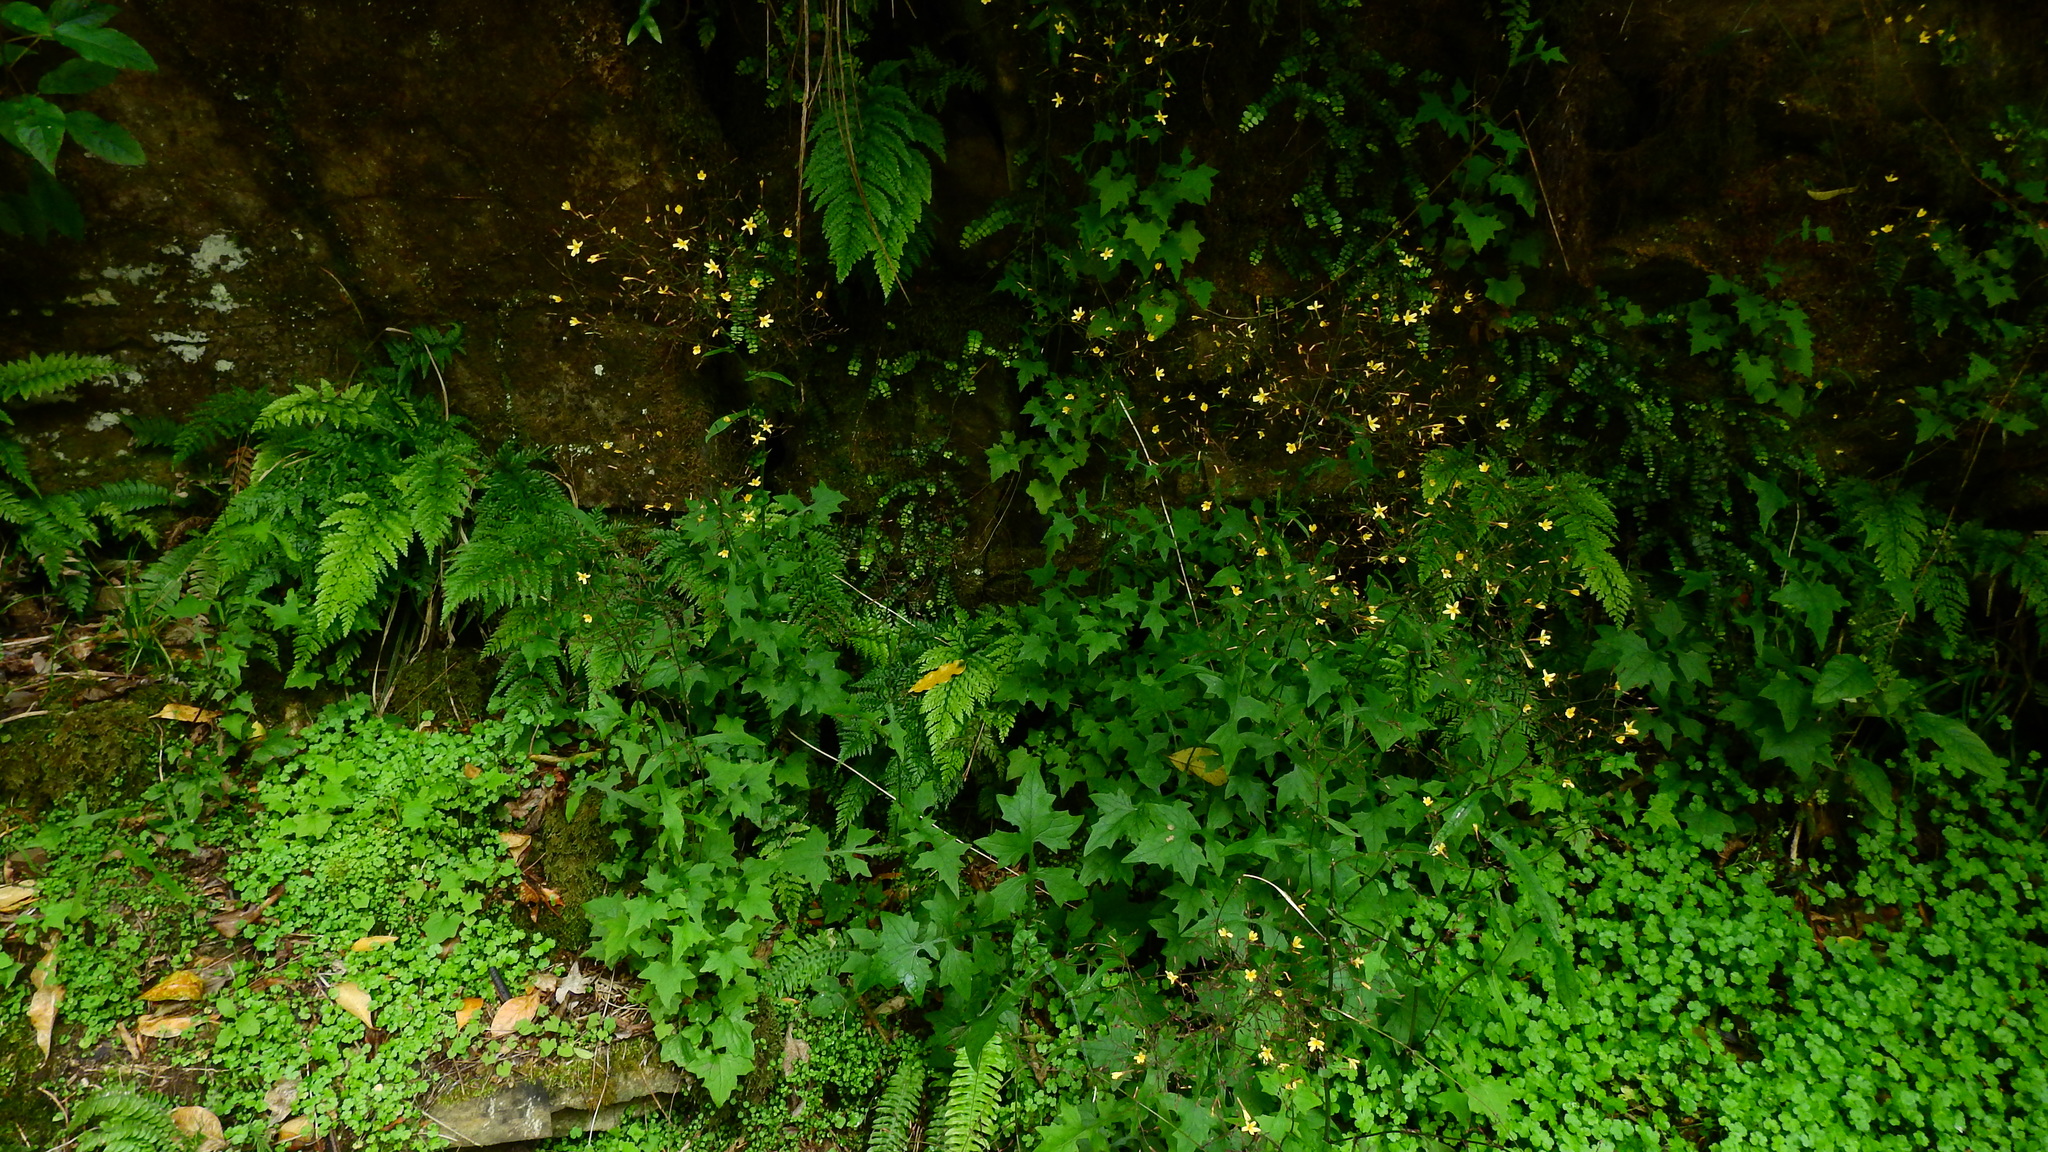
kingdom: Plantae
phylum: Tracheophyta
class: Magnoliopsida
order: Asterales
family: Asteraceae
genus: Mycelis
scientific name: Mycelis muralis
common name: Wall lettuce
